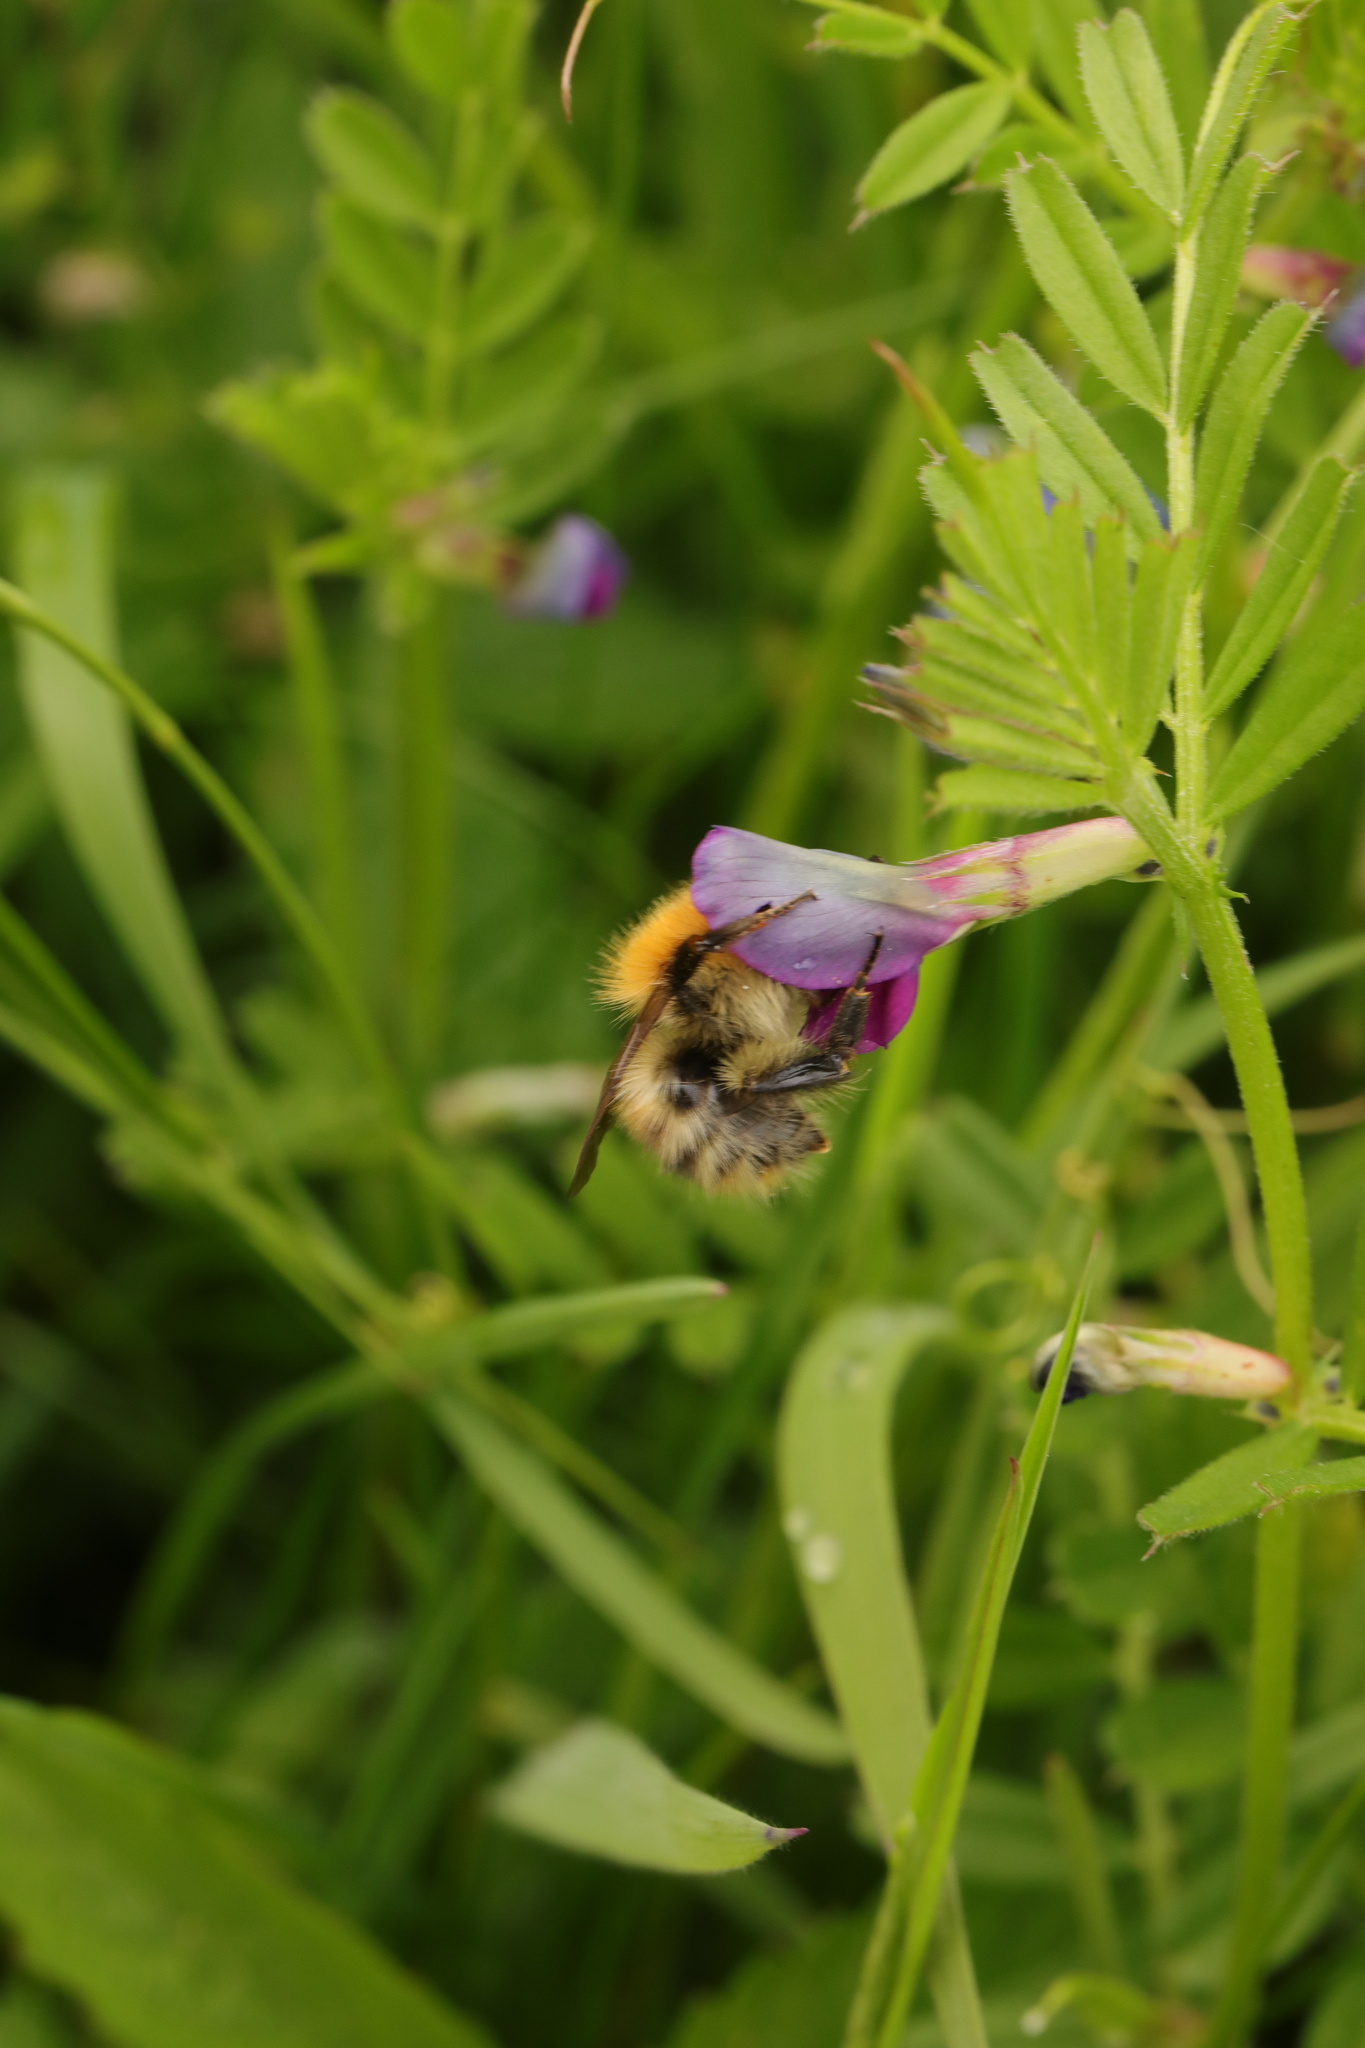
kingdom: Animalia
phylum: Arthropoda
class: Insecta
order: Hymenoptera
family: Apidae
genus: Bombus
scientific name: Bombus pascuorum
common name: Common carder bee
